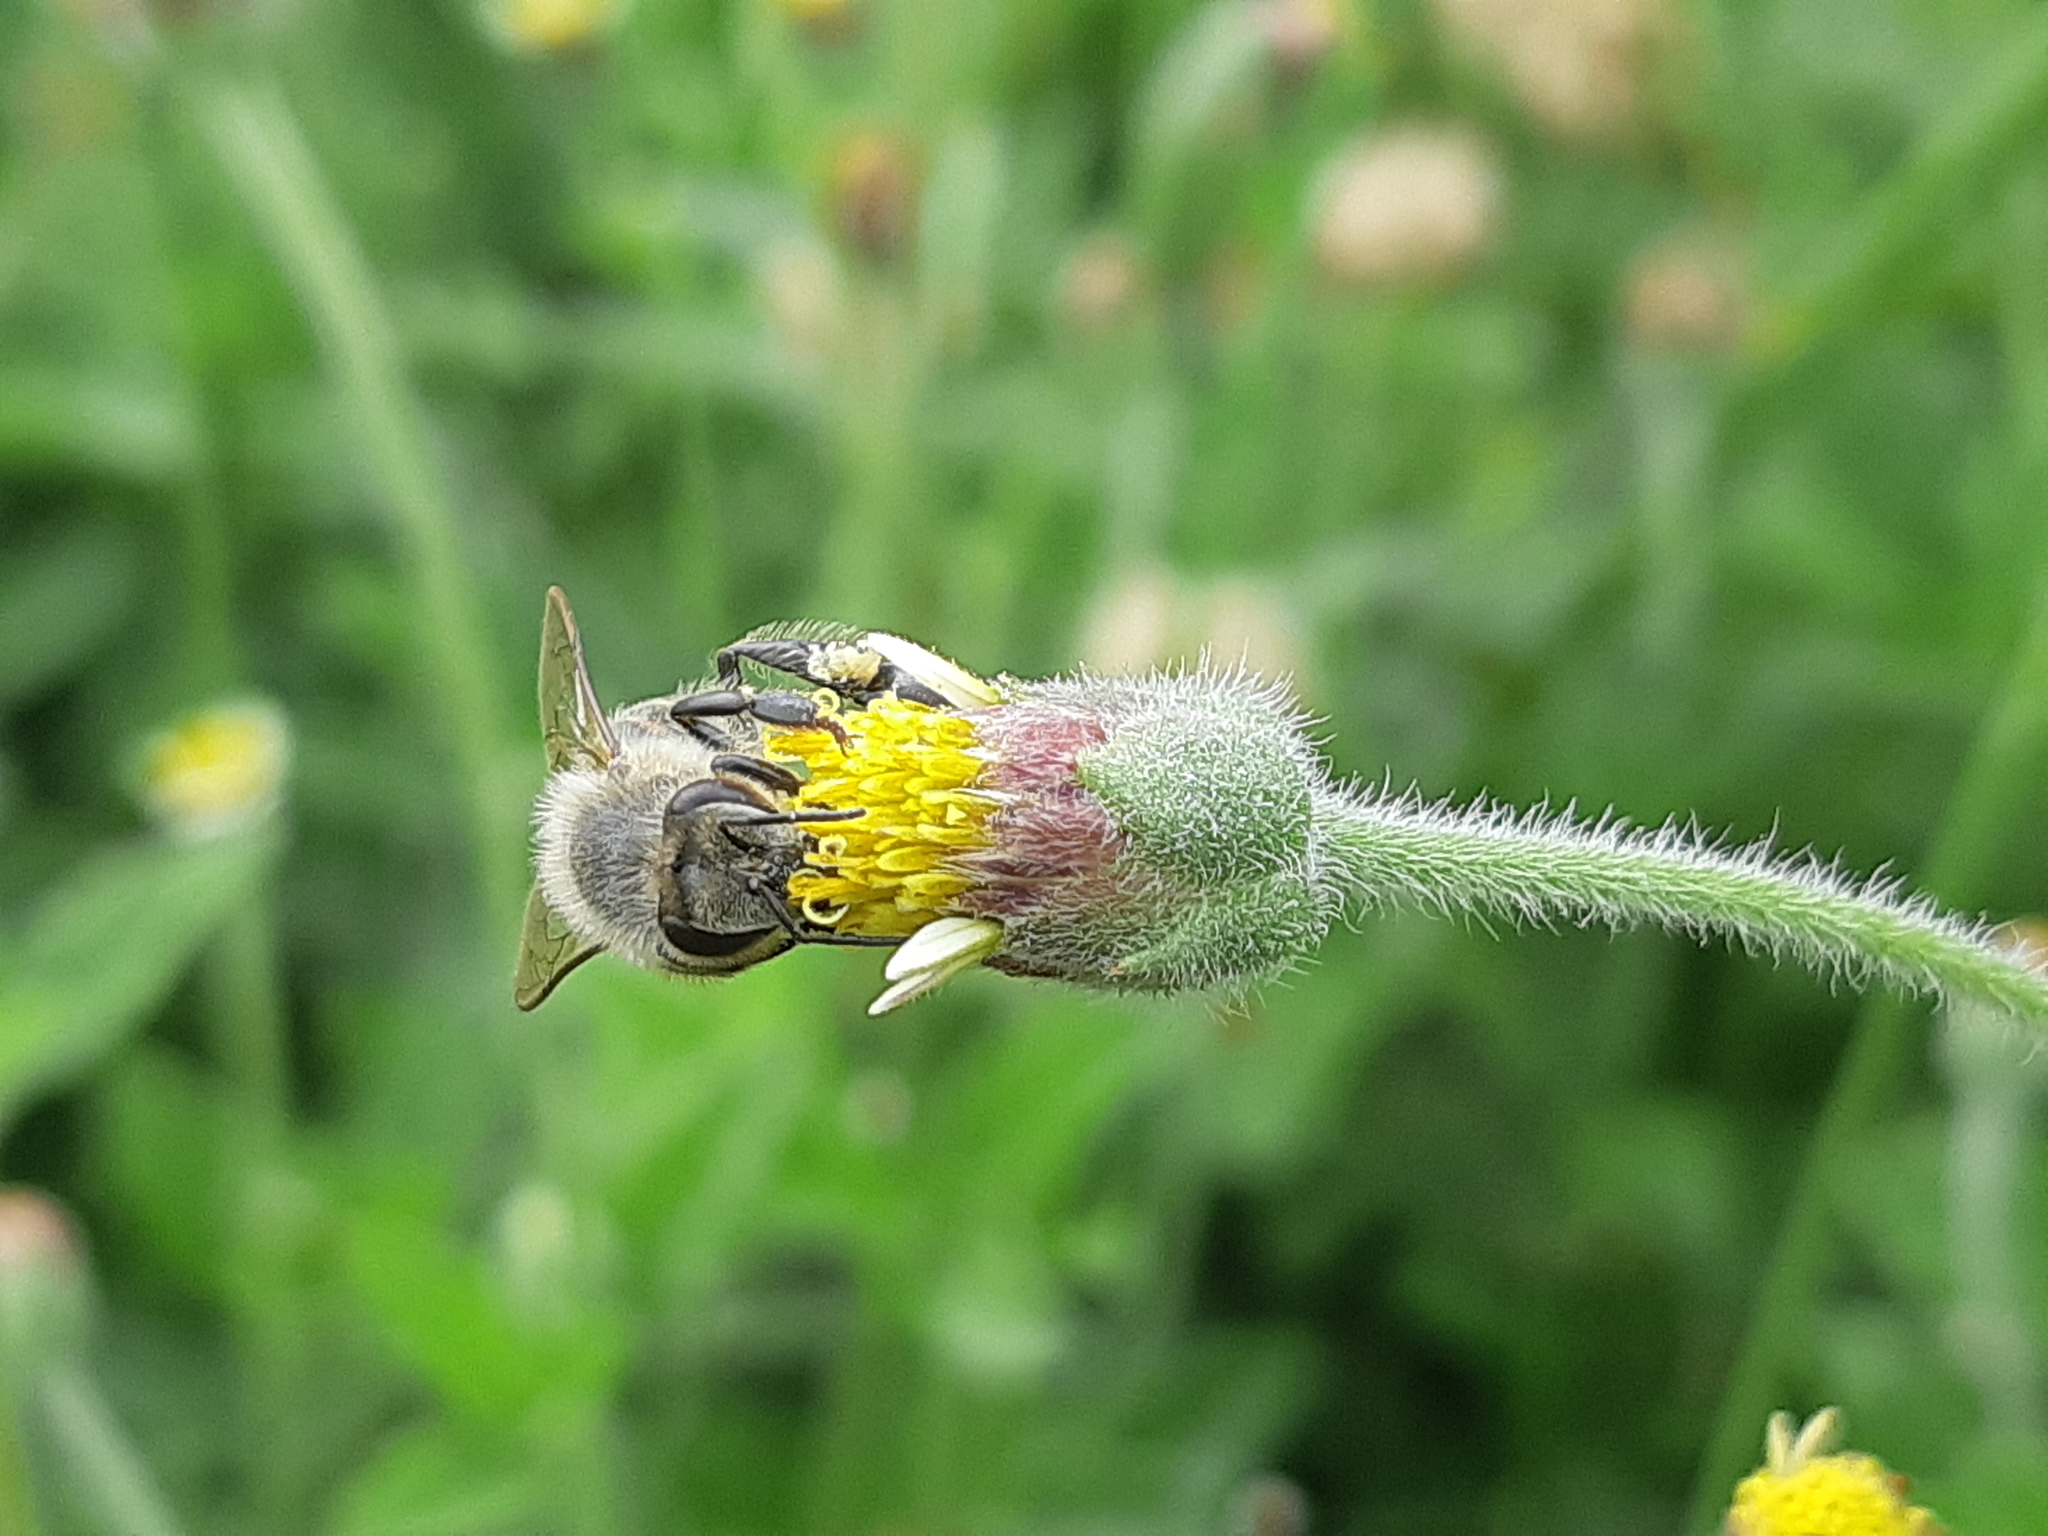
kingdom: Animalia
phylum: Arthropoda
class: Insecta
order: Hymenoptera
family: Apidae
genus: Apis
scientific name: Apis mellifera
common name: Honey bee
